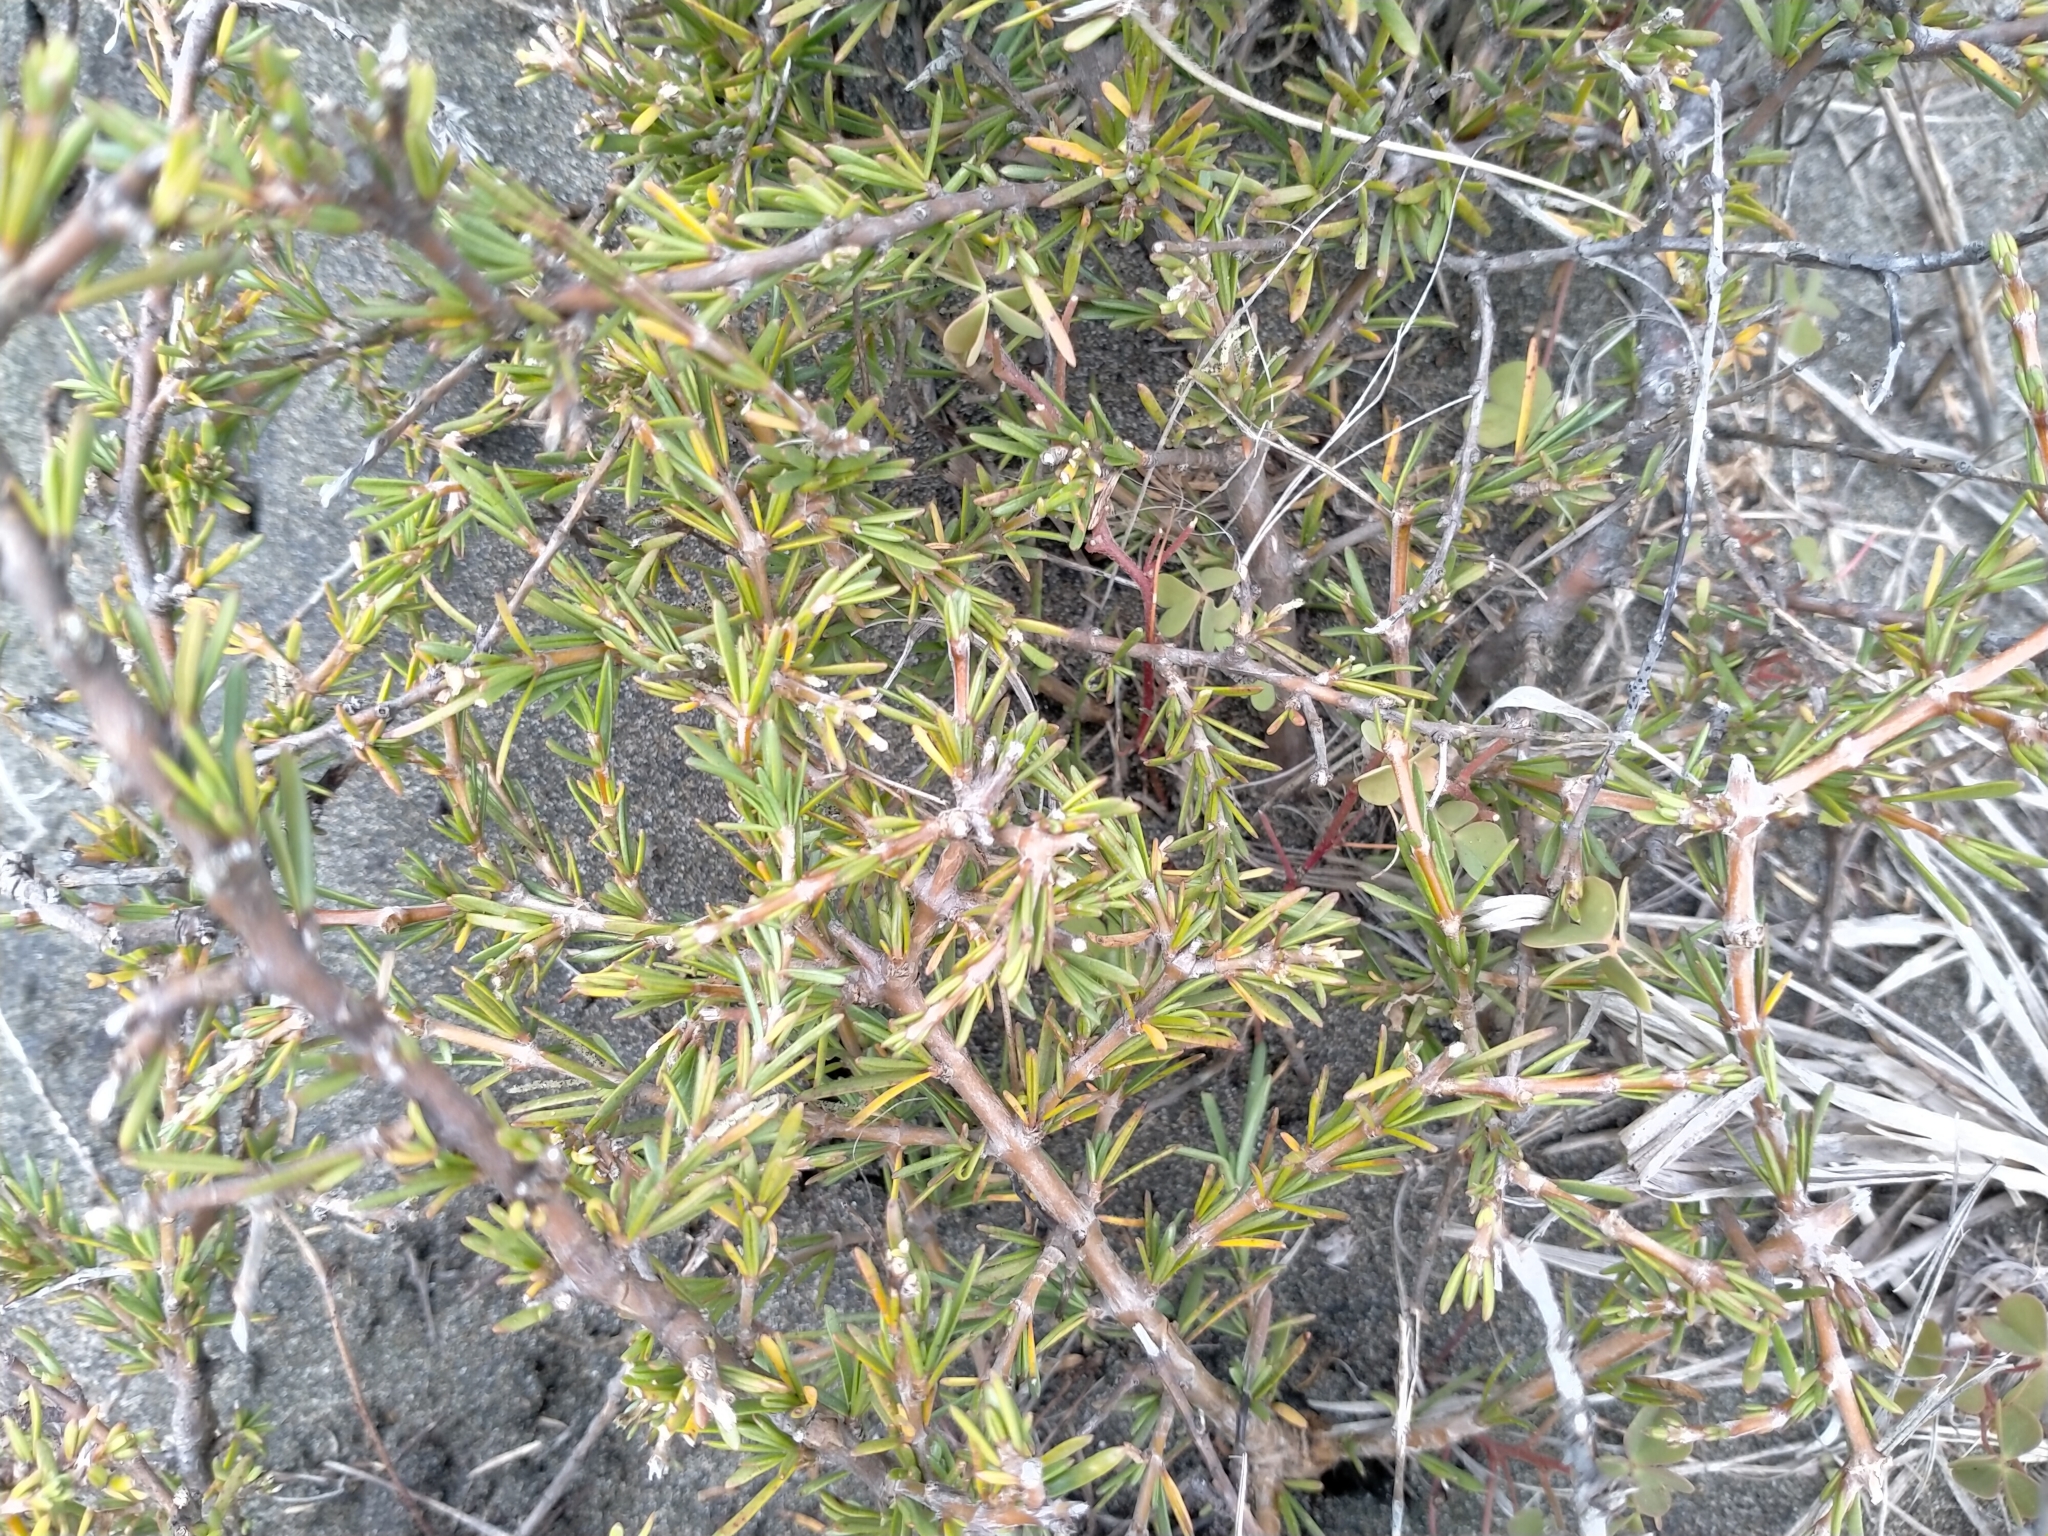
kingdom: Plantae
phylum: Tracheophyta
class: Magnoliopsida
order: Gentianales
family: Rubiaceae
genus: Coprosma
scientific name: Coprosma acerosa
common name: Sand coprosma
